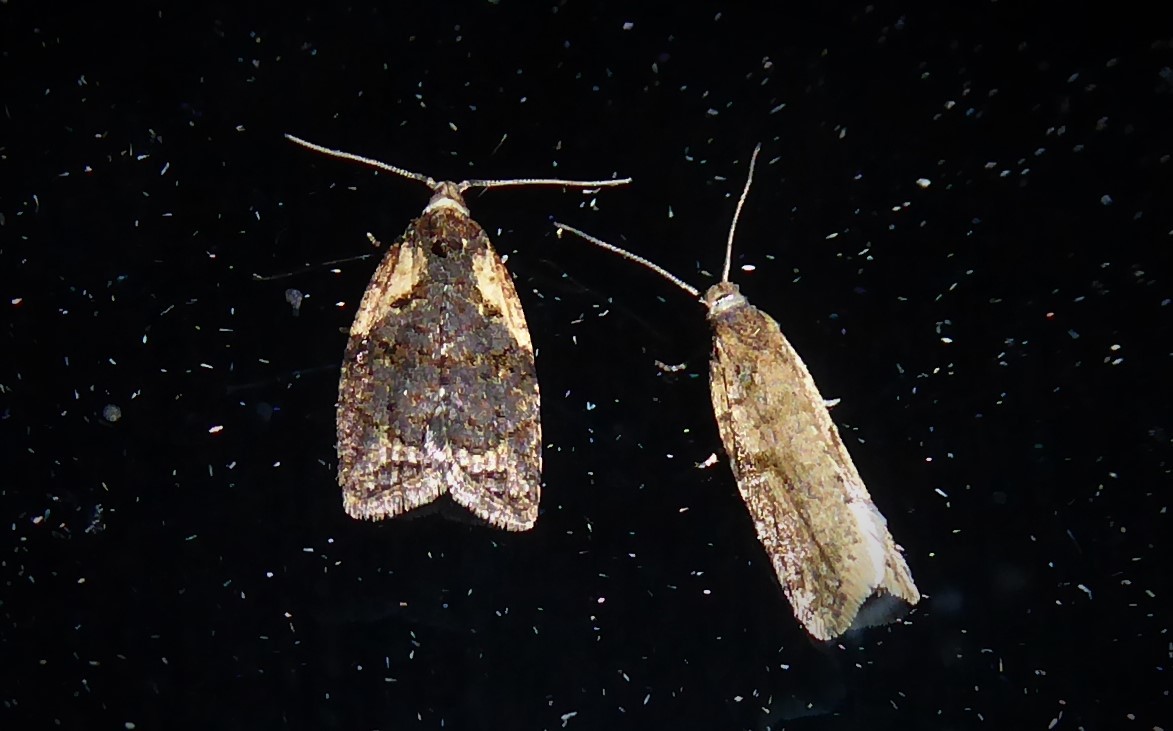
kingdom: Animalia
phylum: Arthropoda
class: Insecta
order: Lepidoptera
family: Tortricidae
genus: Capua
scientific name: Capua intractana
